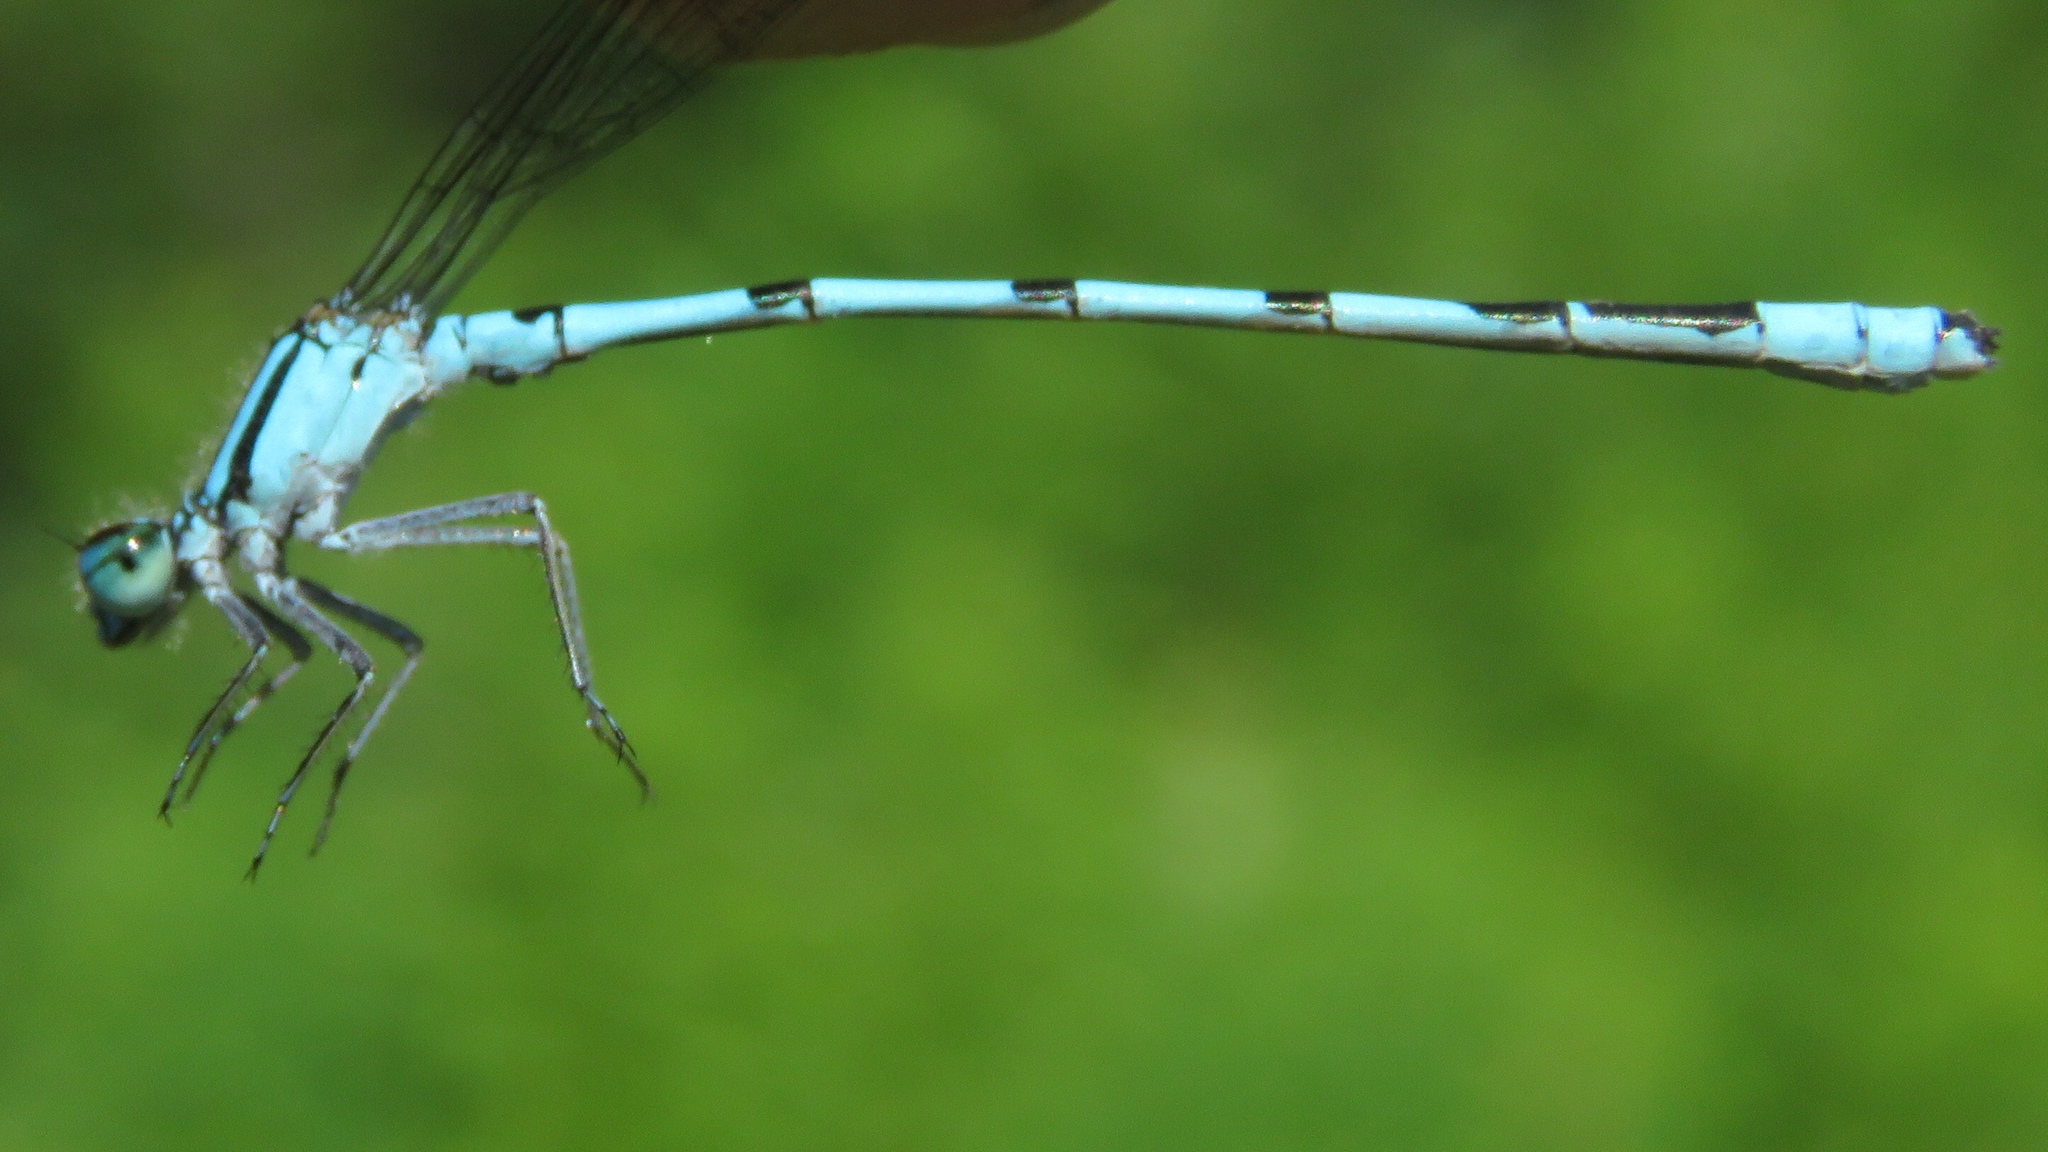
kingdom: Animalia
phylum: Arthropoda
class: Insecta
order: Odonata
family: Coenagrionidae
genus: Enallagma
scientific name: Enallagma ebrium
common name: Marsh bluet
